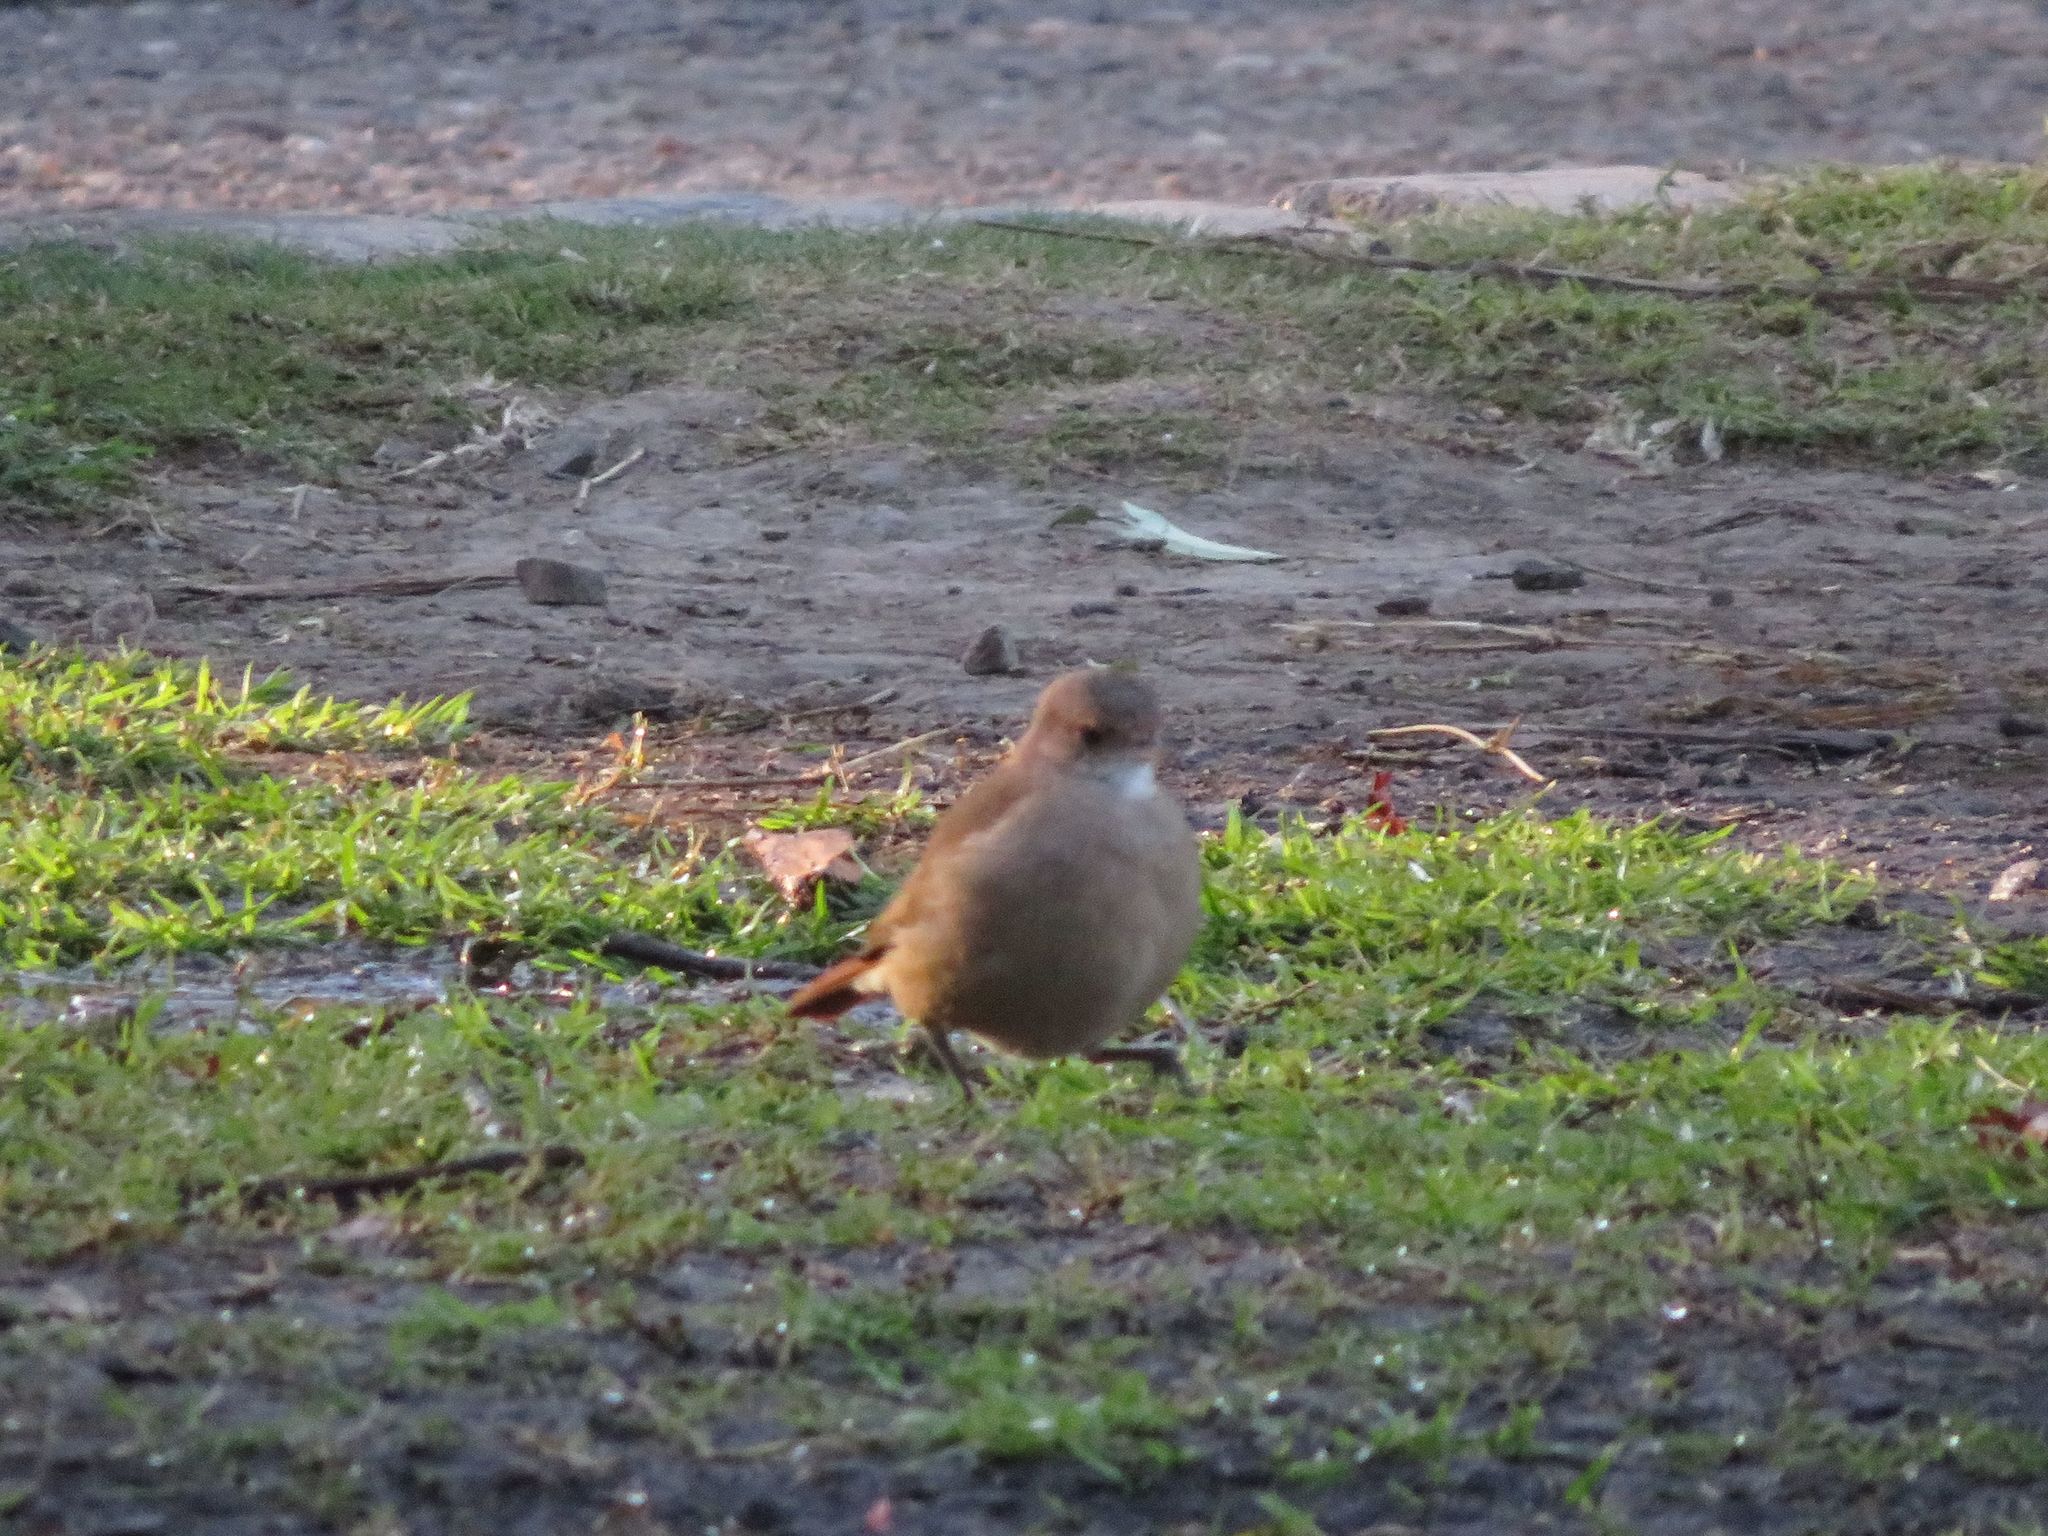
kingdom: Animalia
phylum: Chordata
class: Aves
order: Passeriformes
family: Furnariidae
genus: Furnarius
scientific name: Furnarius rufus
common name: Rufous hornero
